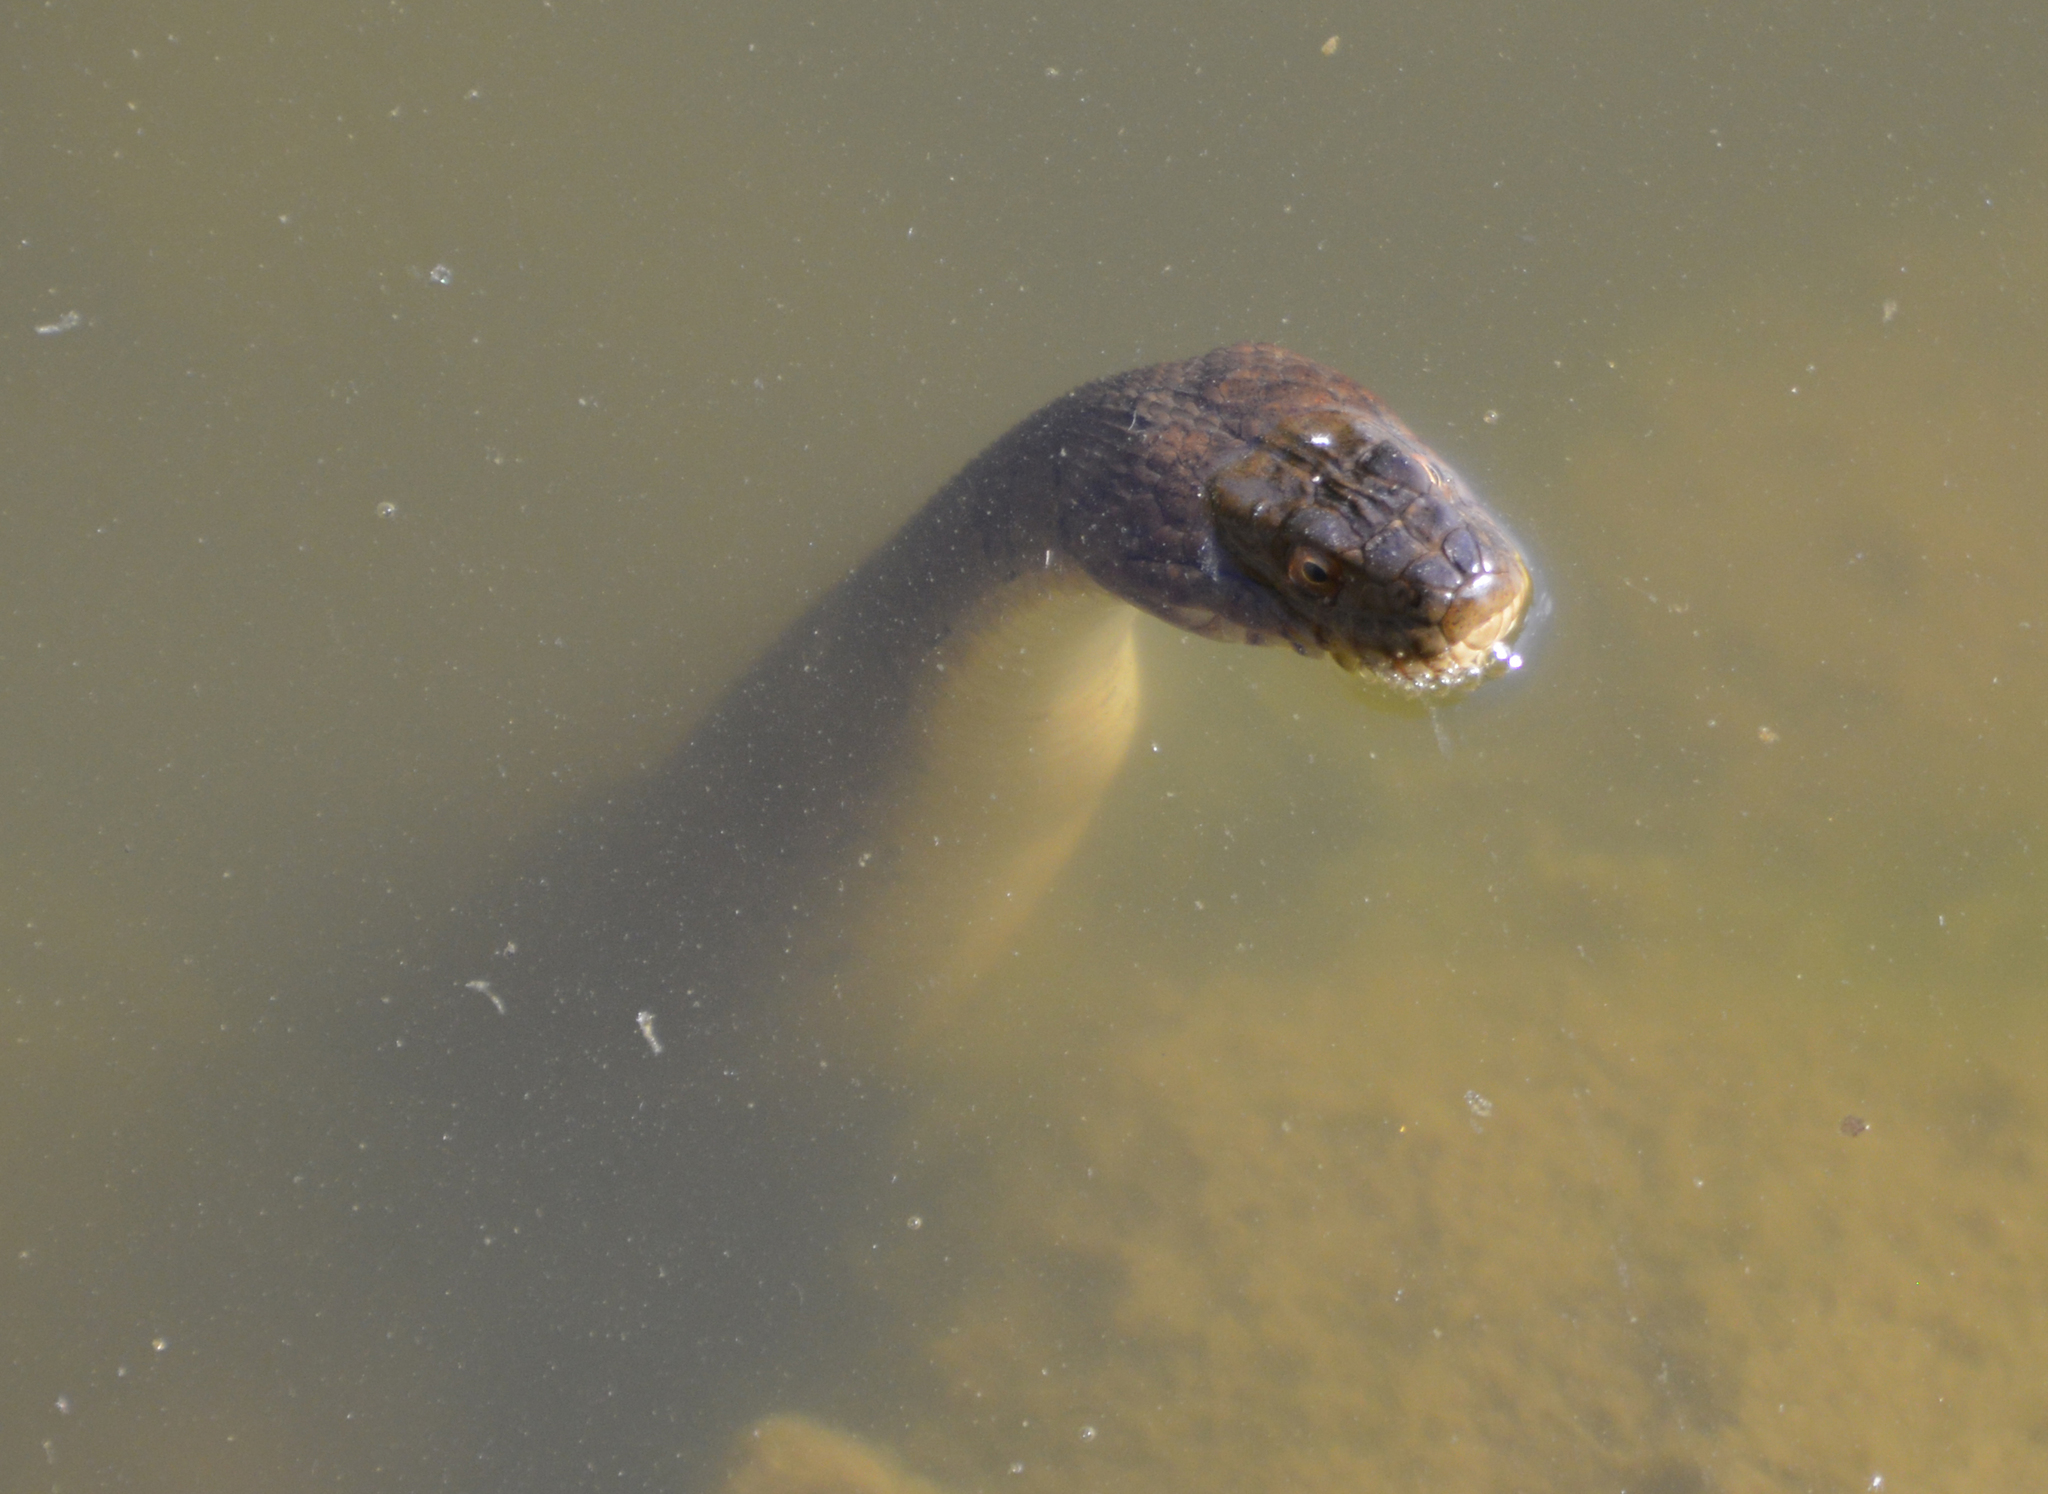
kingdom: Animalia
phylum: Chordata
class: Squamata
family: Colubridae
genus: Nerodia
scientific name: Nerodia sipedon
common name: Northern water snake
